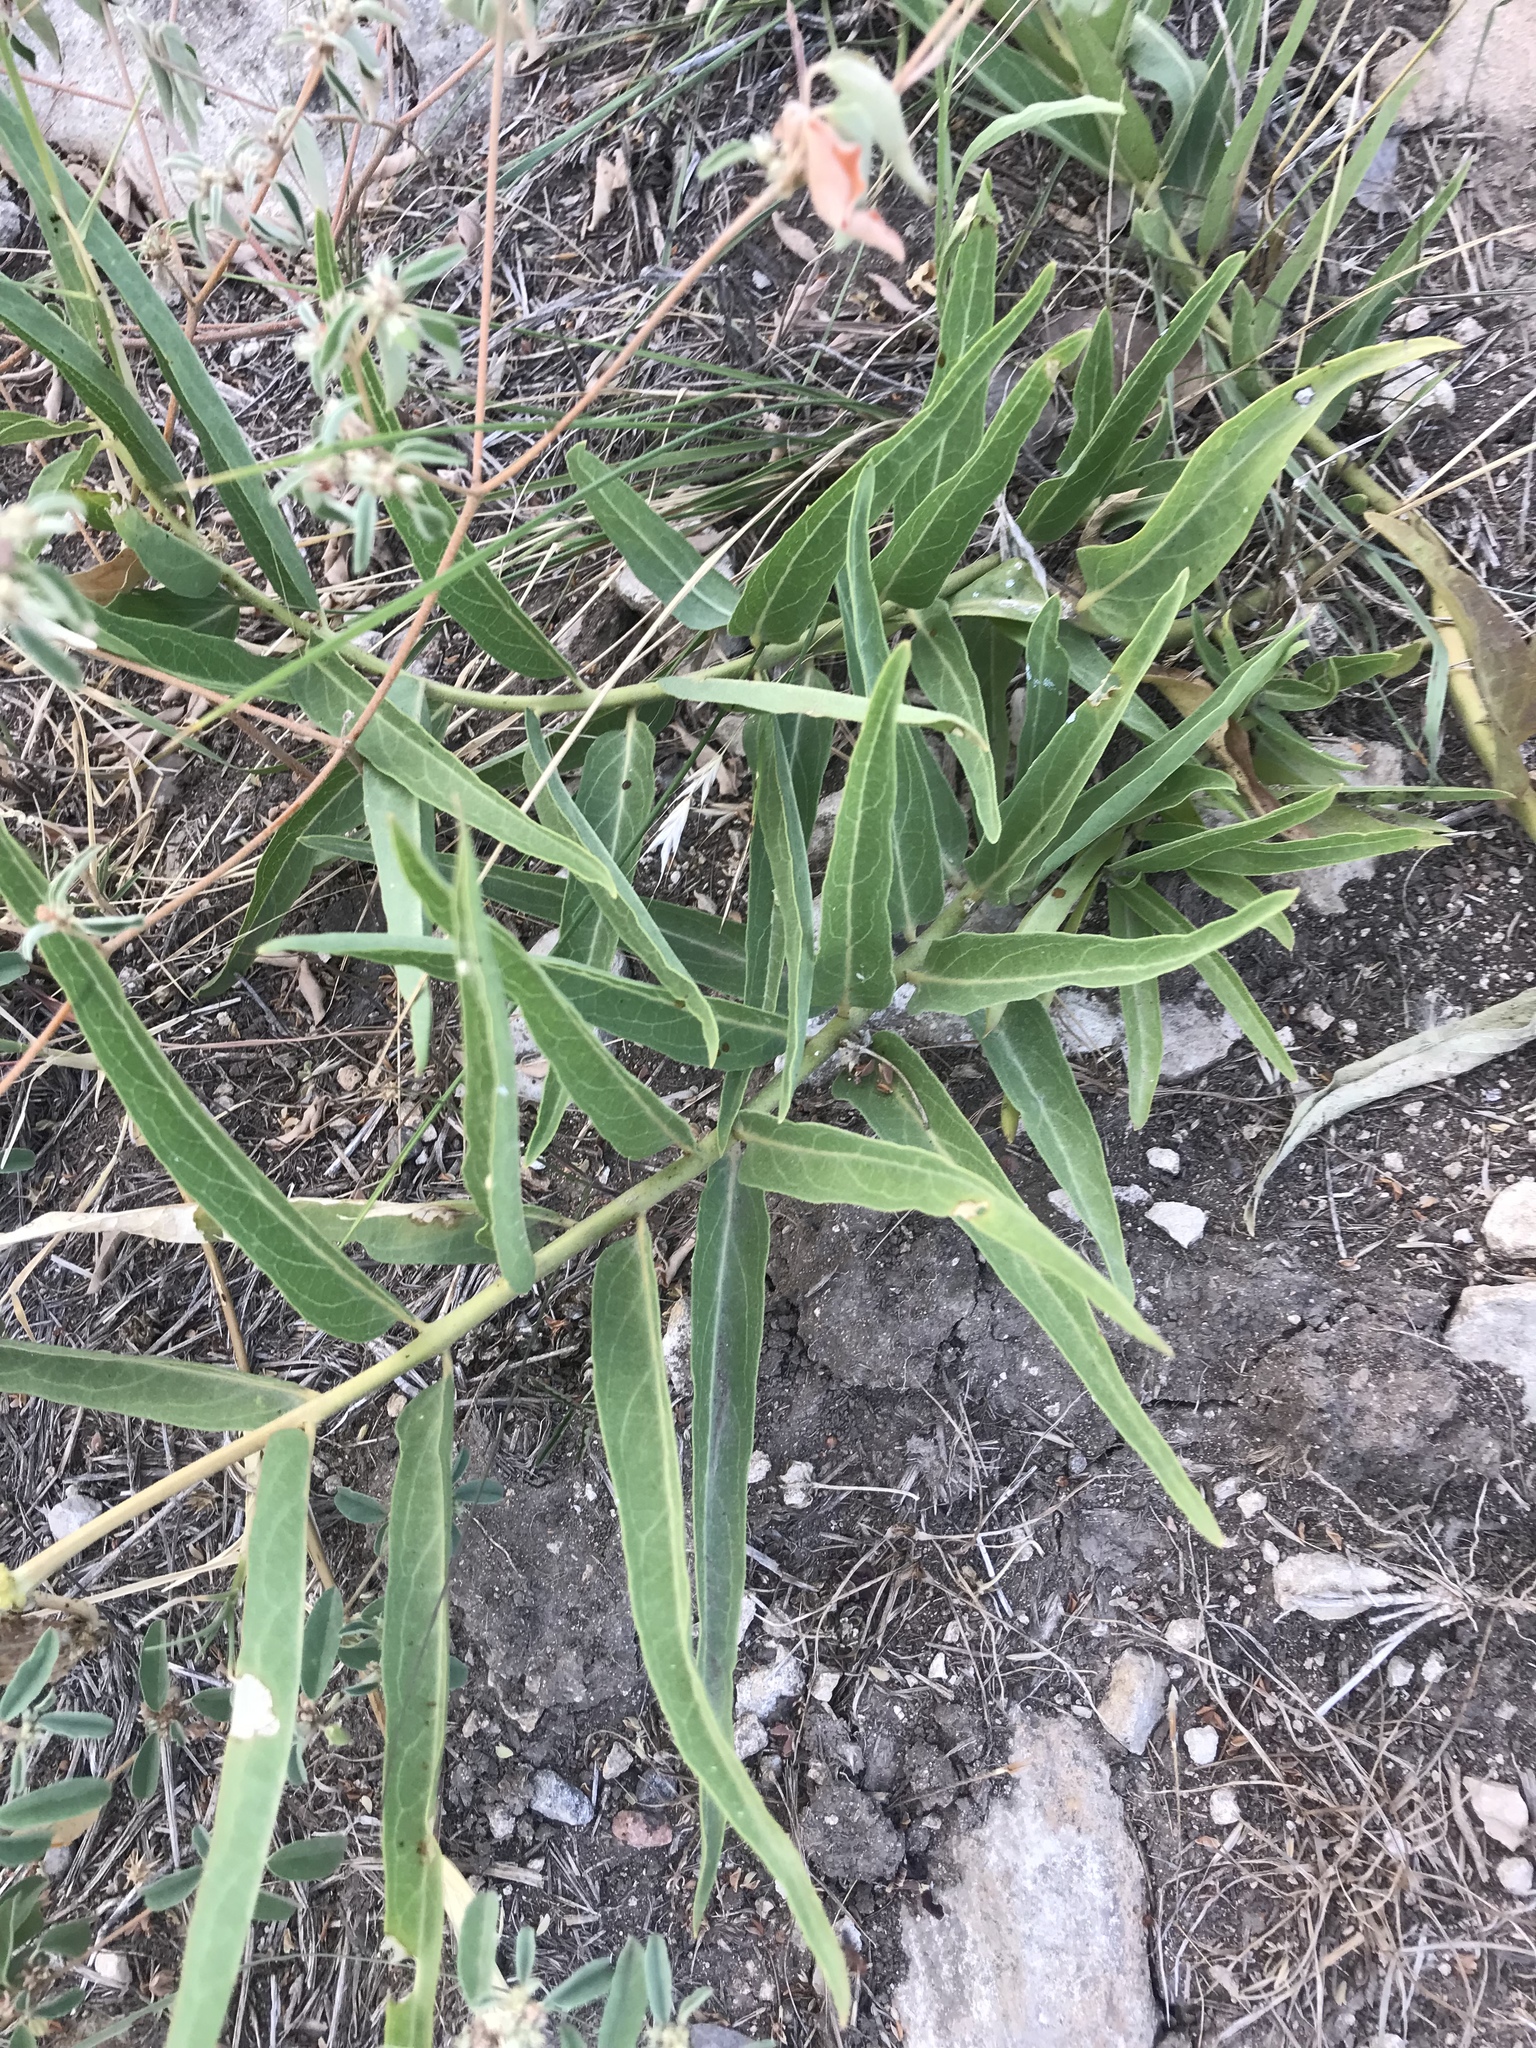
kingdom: Plantae
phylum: Tracheophyta
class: Magnoliopsida
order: Gentianales
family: Apocynaceae
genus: Asclepias
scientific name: Asclepias asperula
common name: Antelope horns
